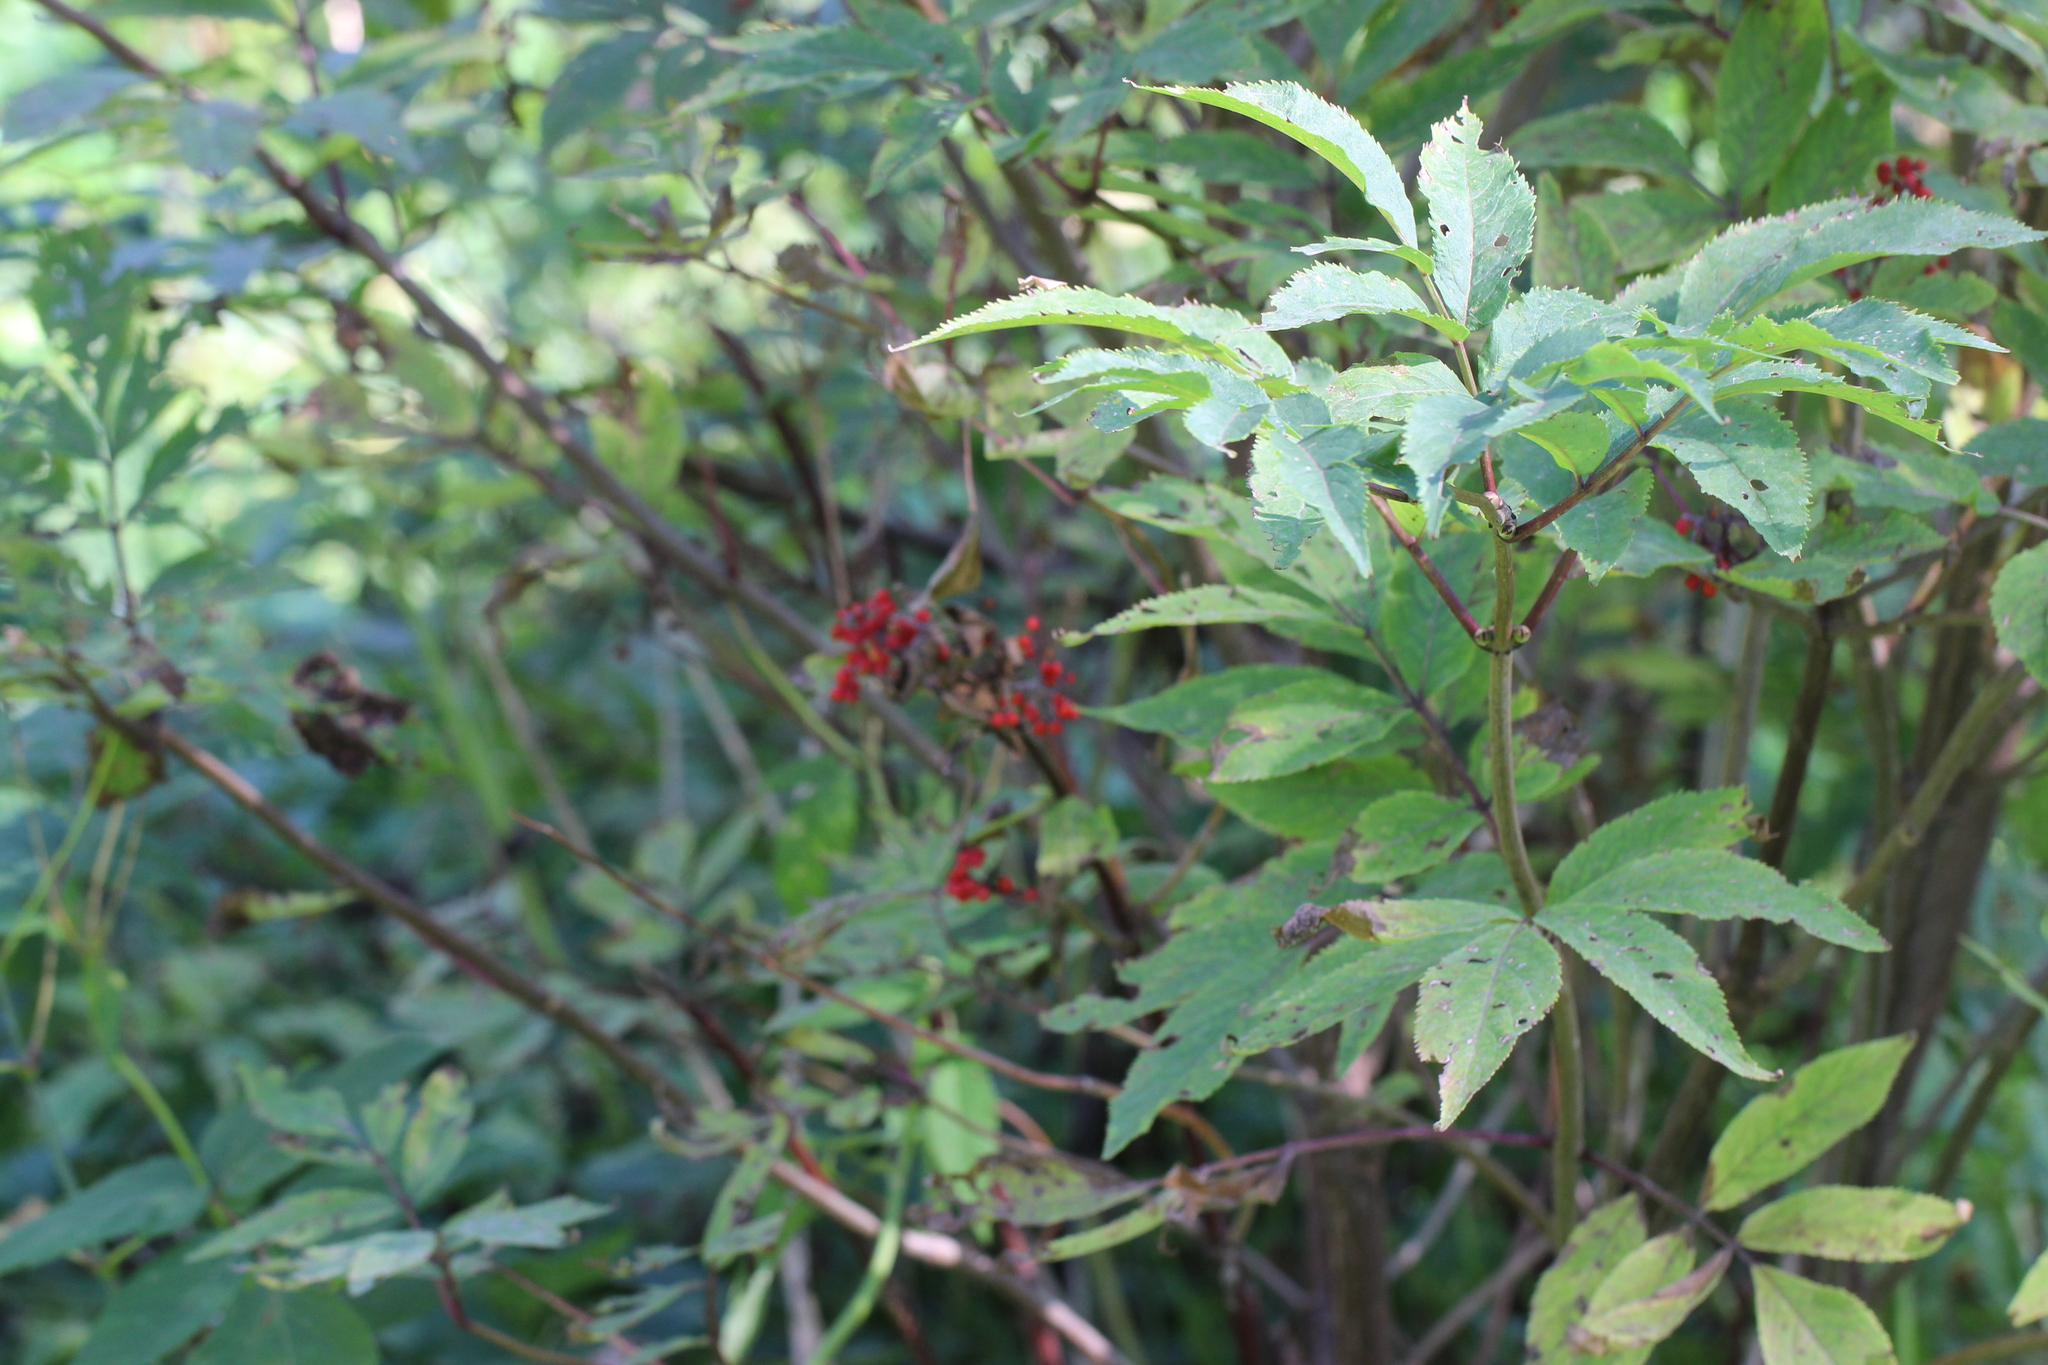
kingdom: Plantae
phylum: Tracheophyta
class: Magnoliopsida
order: Dipsacales
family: Viburnaceae
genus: Sambucus
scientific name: Sambucus racemosa
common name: Red-berried elder
